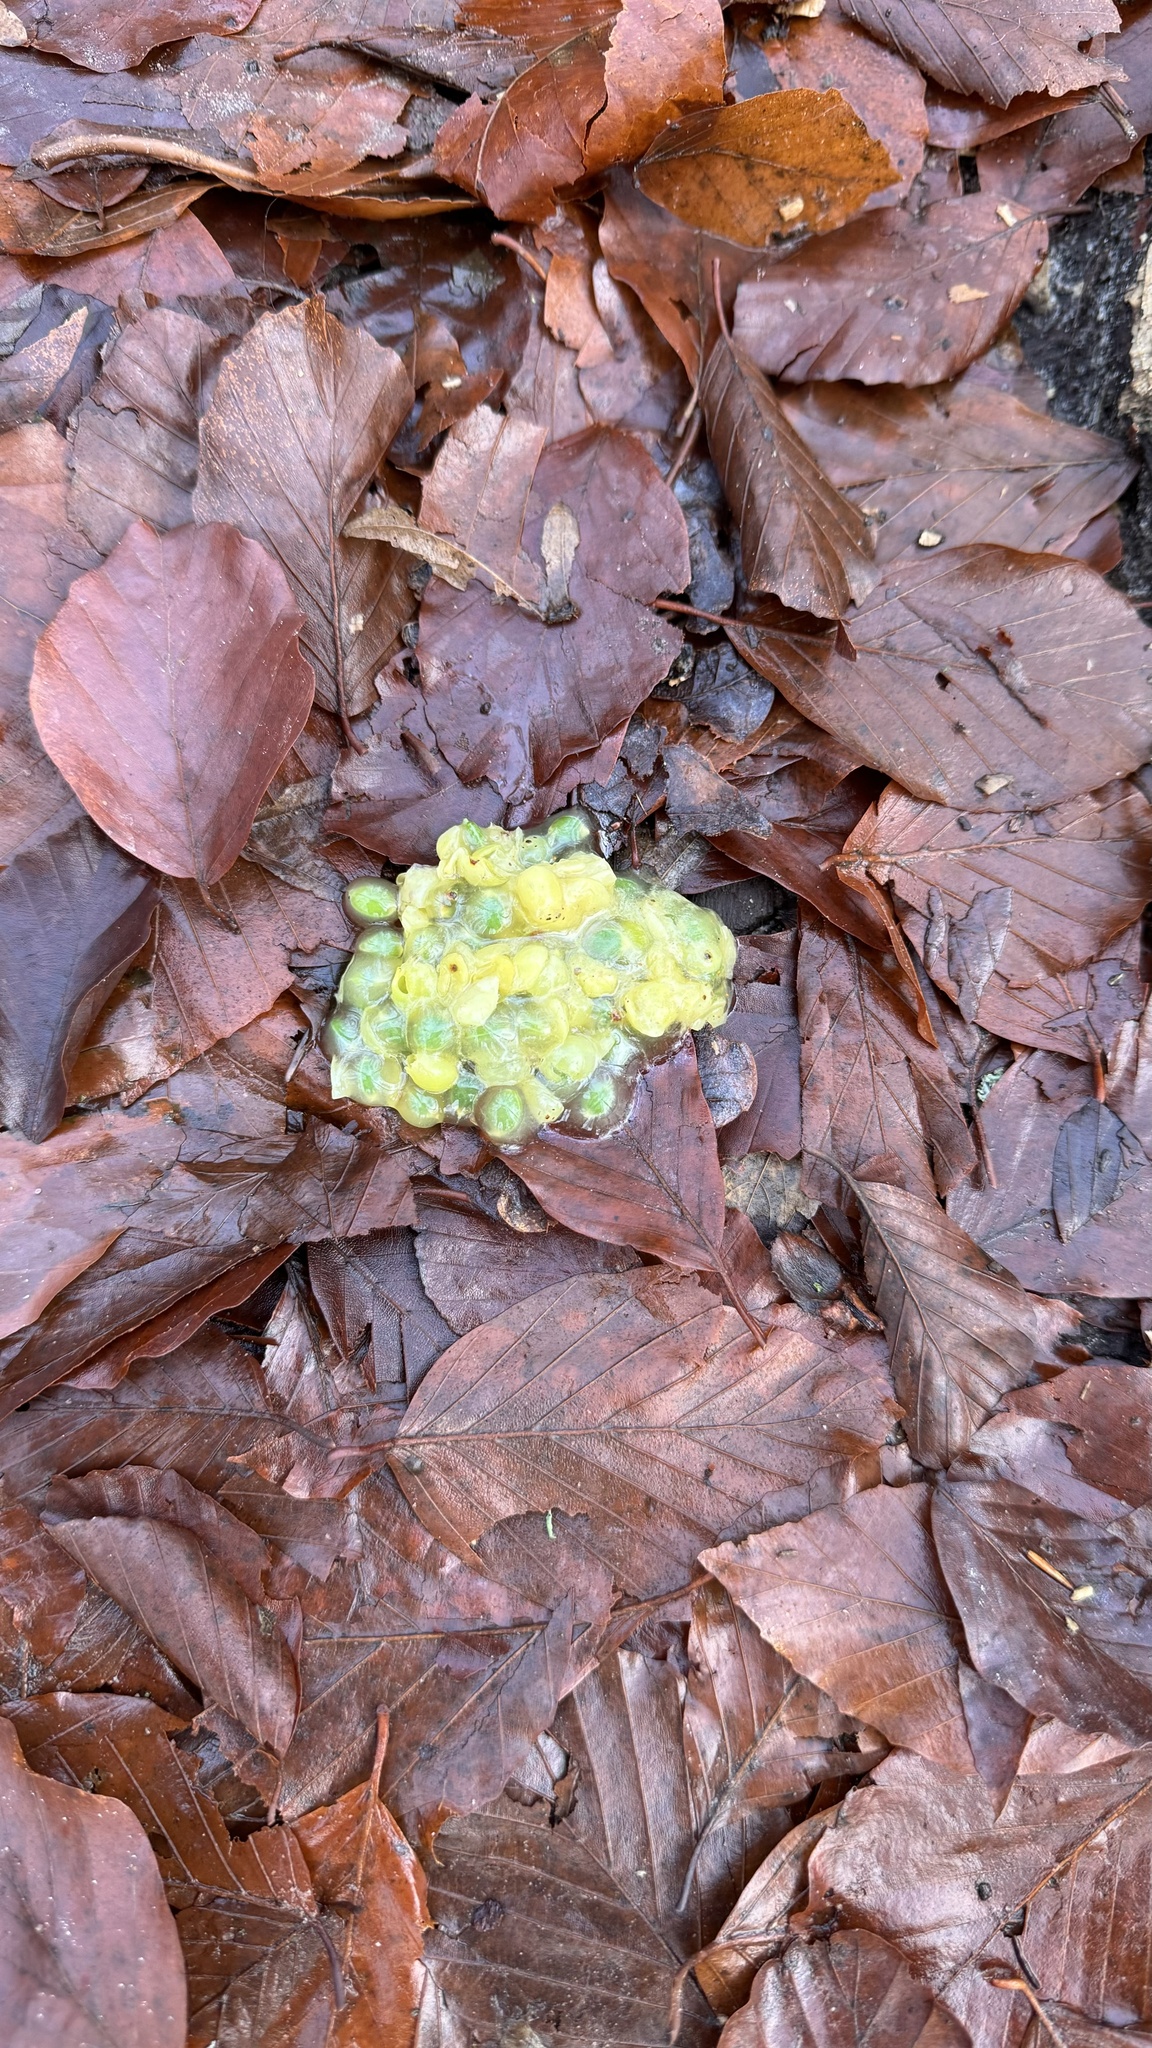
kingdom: Plantae
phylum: Tracheophyta
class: Magnoliopsida
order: Santalales
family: Viscaceae
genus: Viscum
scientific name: Viscum album
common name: Mistletoe
